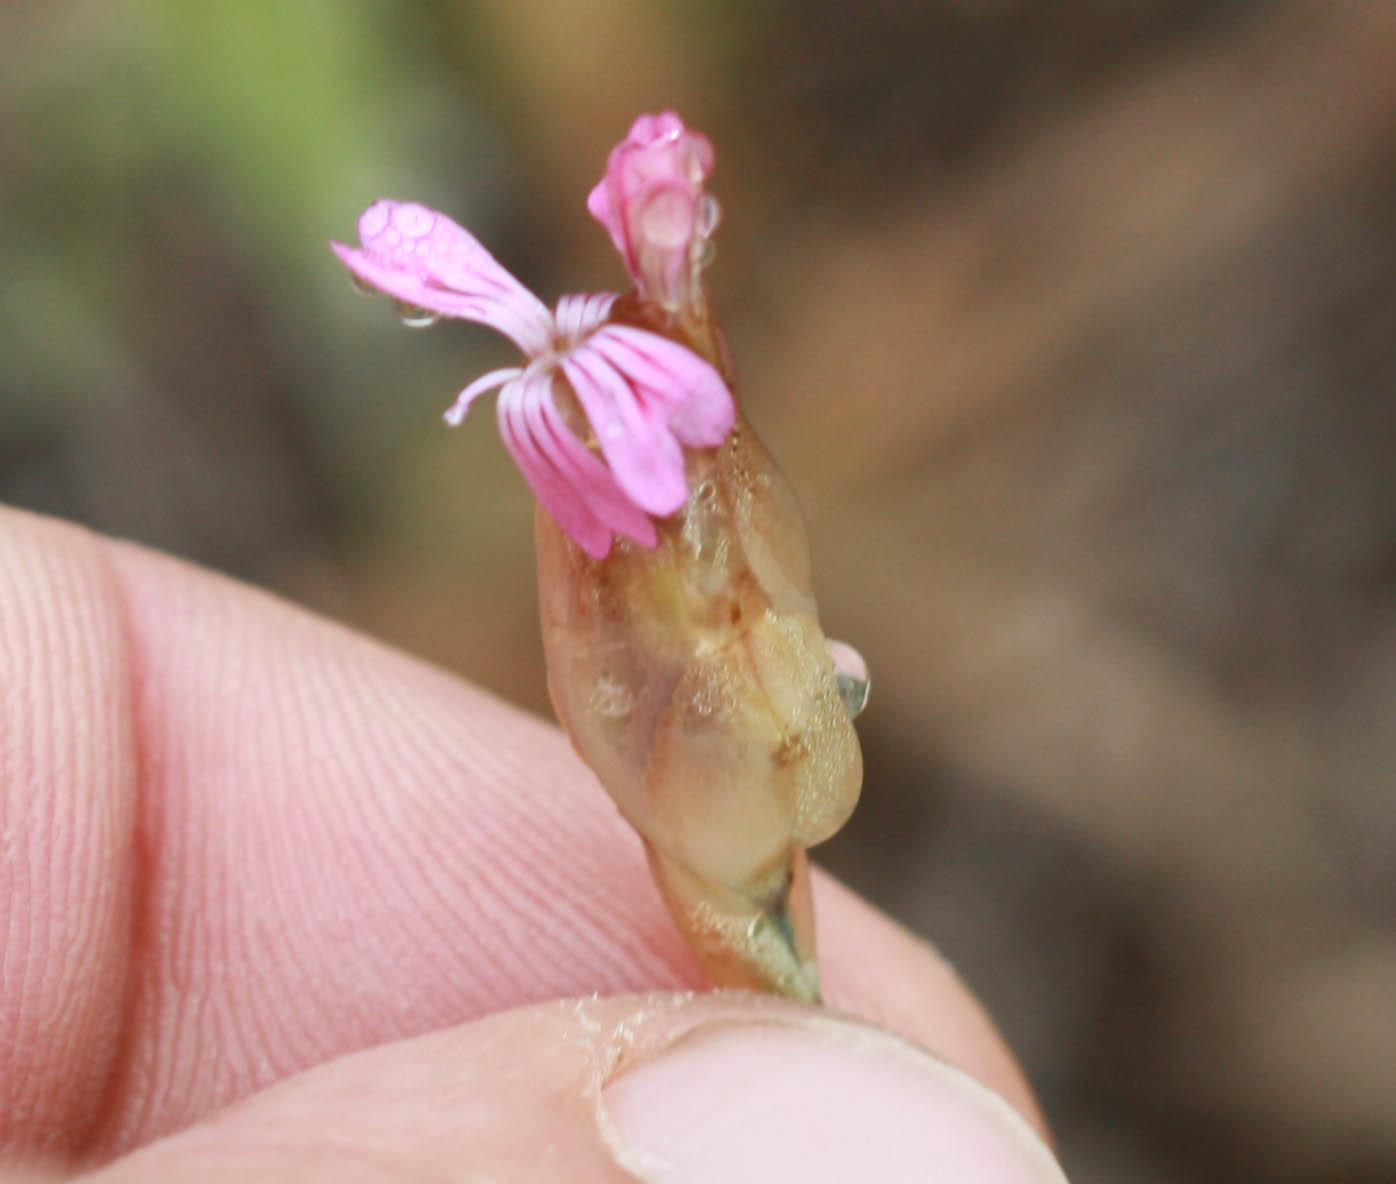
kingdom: Plantae
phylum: Tracheophyta
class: Magnoliopsida
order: Caryophyllales
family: Caryophyllaceae
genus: Petrorhagia
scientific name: Petrorhagia dubia
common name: Hairypink
